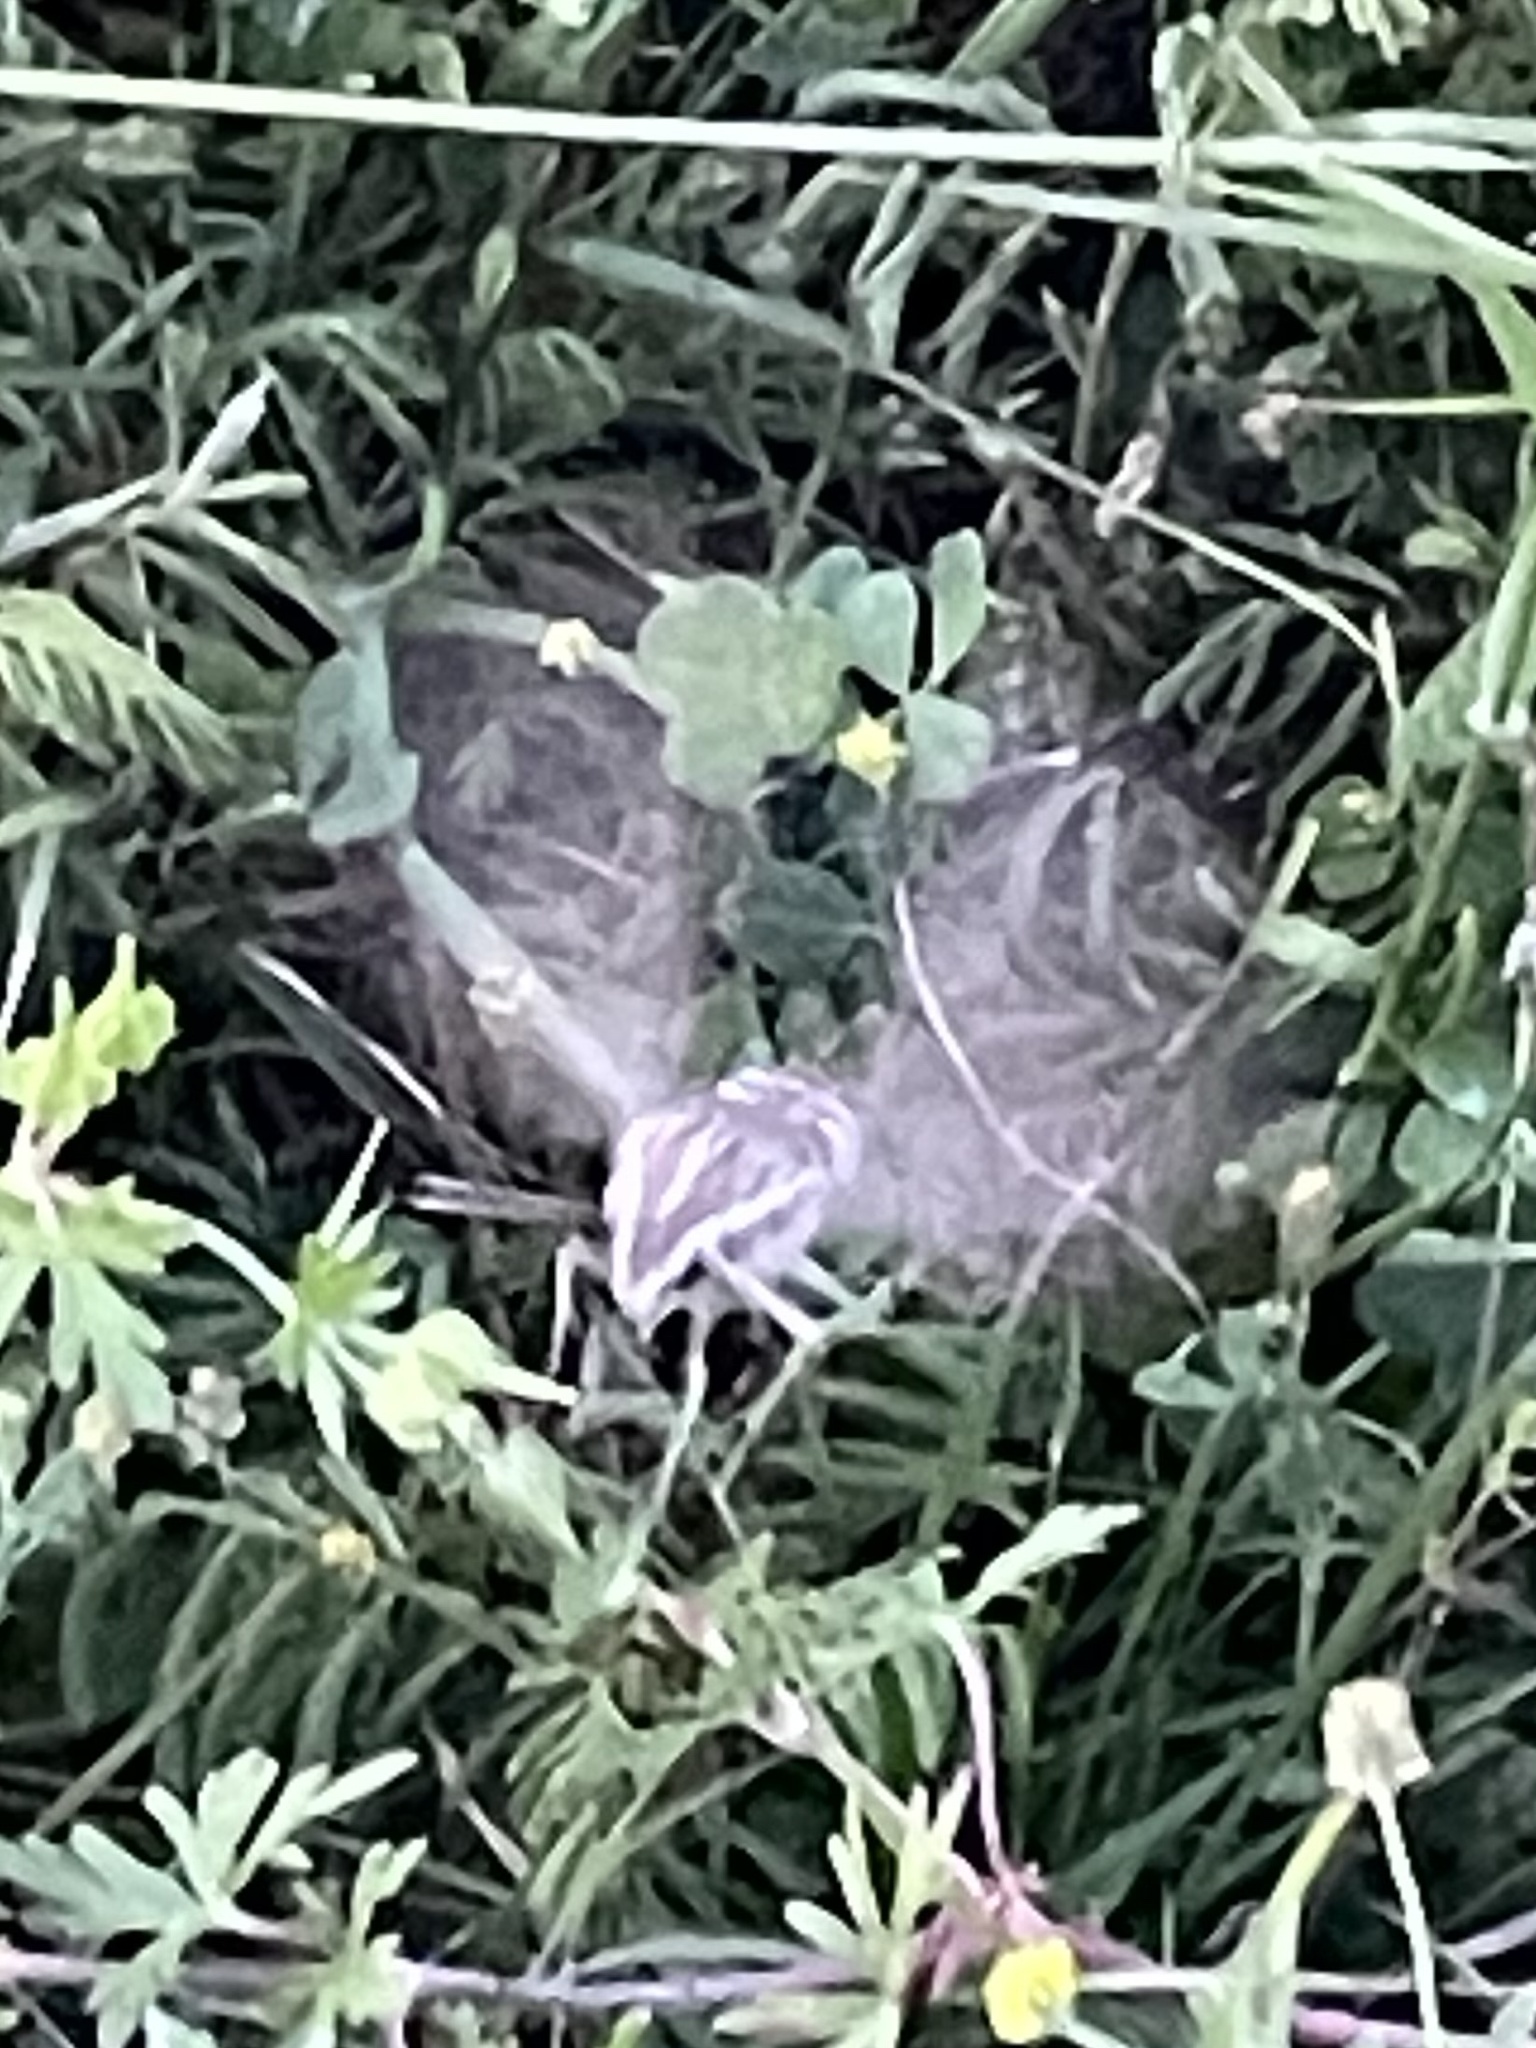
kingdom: Animalia
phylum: Arthropoda
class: Insecta
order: Lepidoptera
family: Sphingidae
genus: Hyles
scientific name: Hyles lineata
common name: White-lined sphinx
